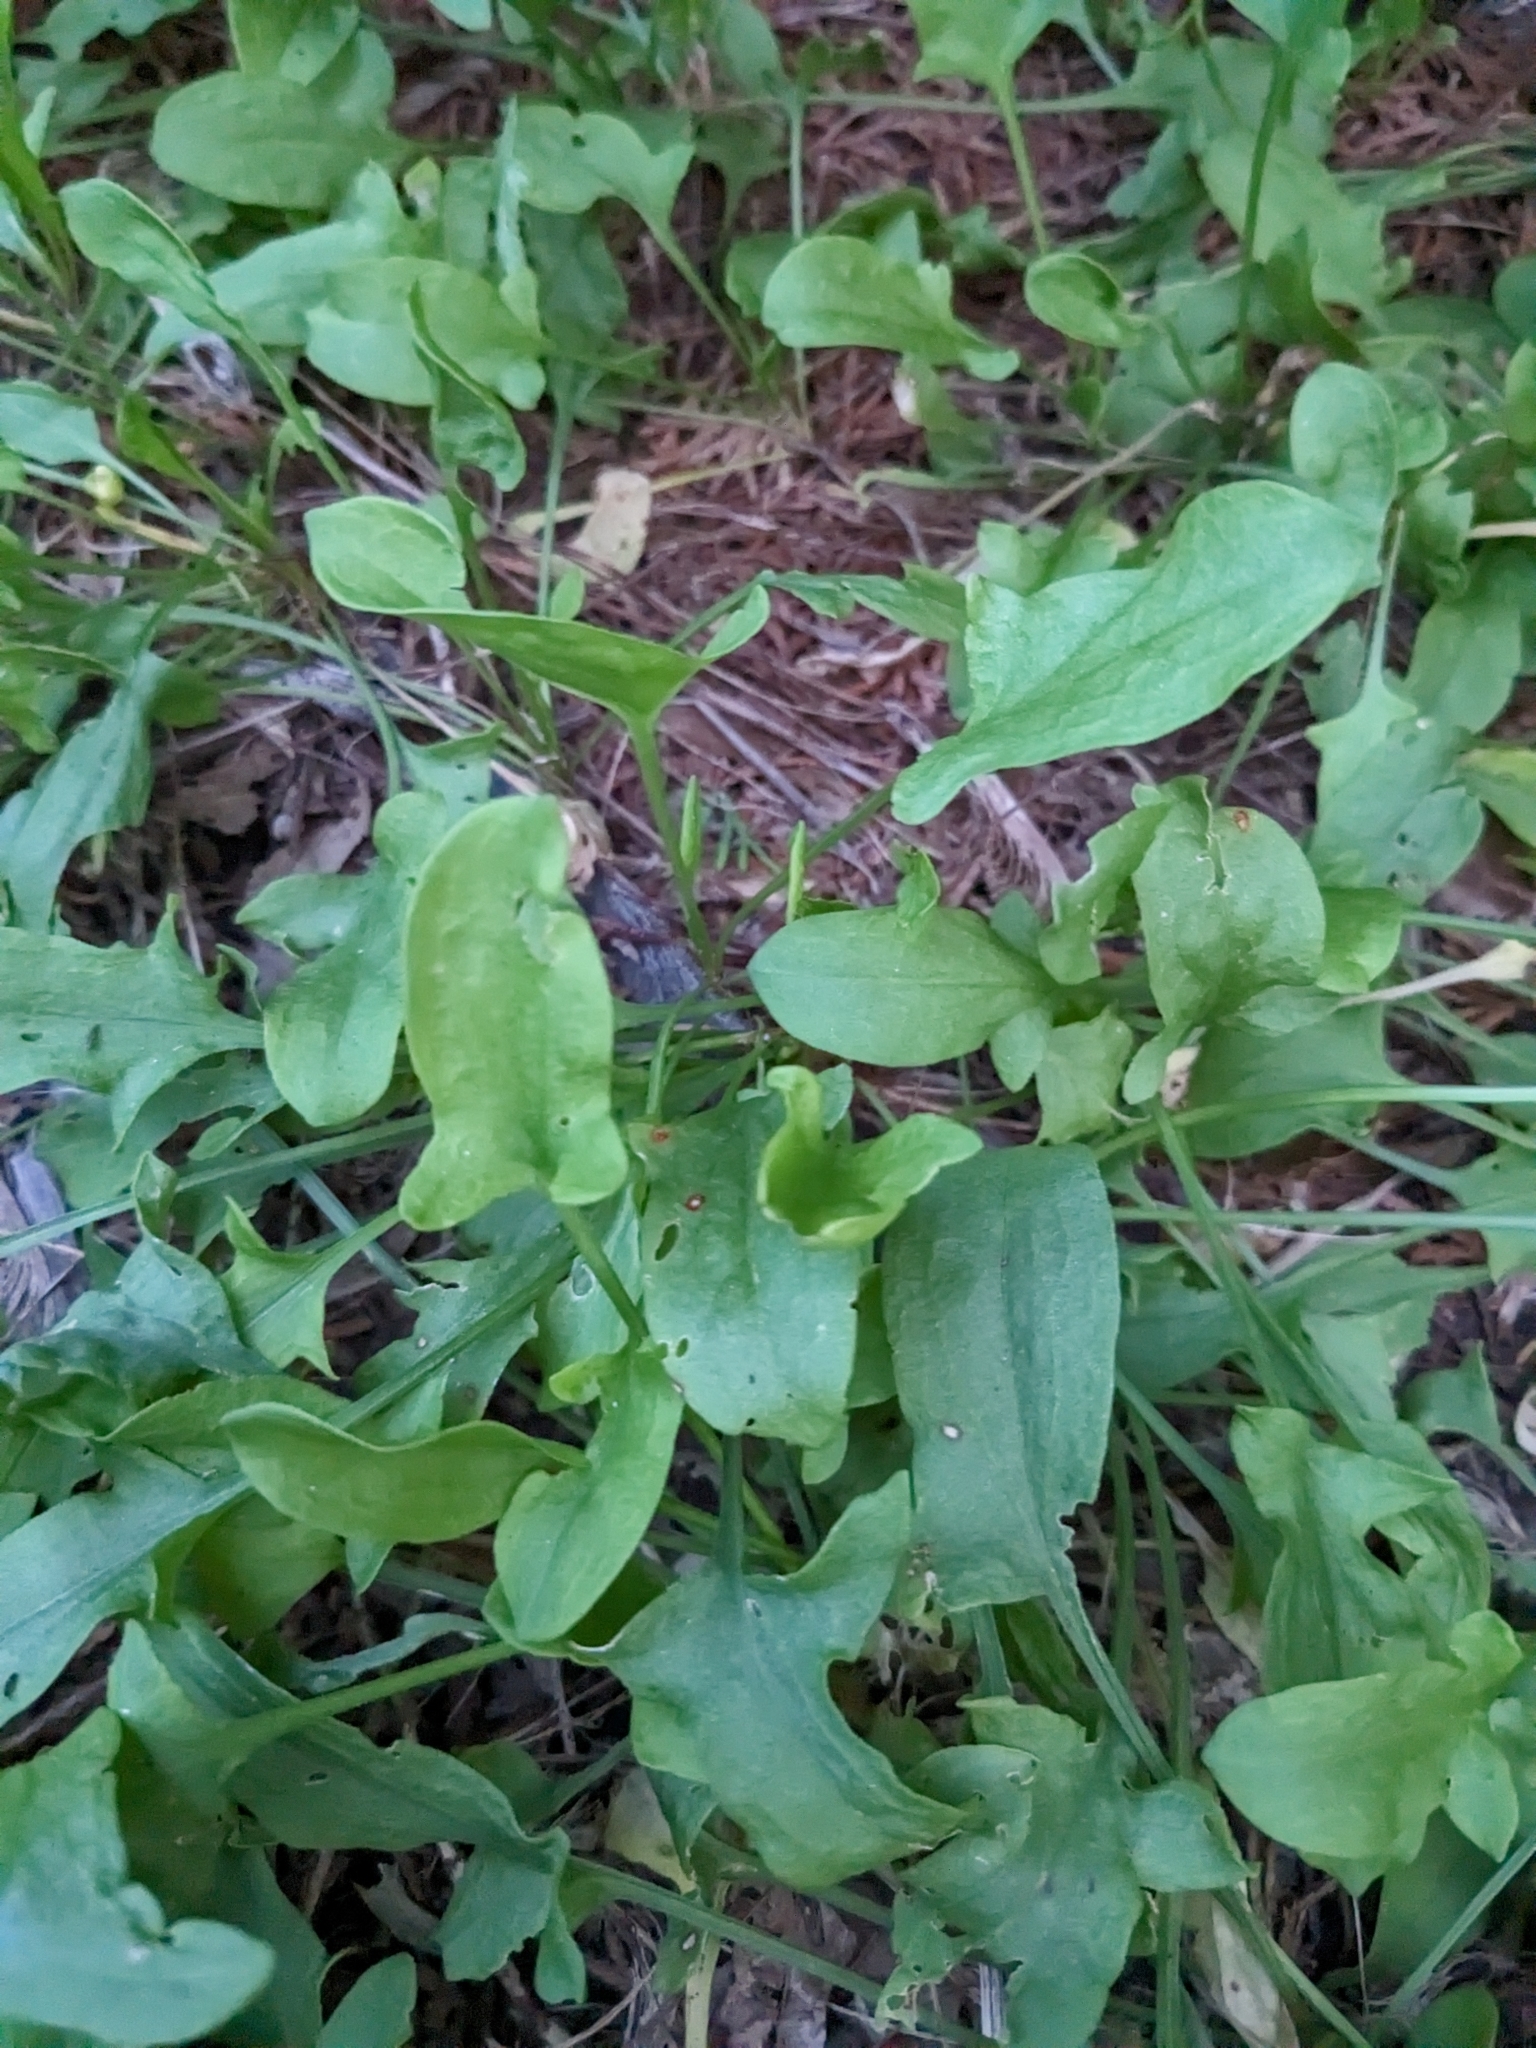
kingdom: Plantae
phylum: Tracheophyta
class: Magnoliopsida
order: Caryophyllales
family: Polygonaceae
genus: Rumex
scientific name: Rumex acetosella
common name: Common sheep sorrel
